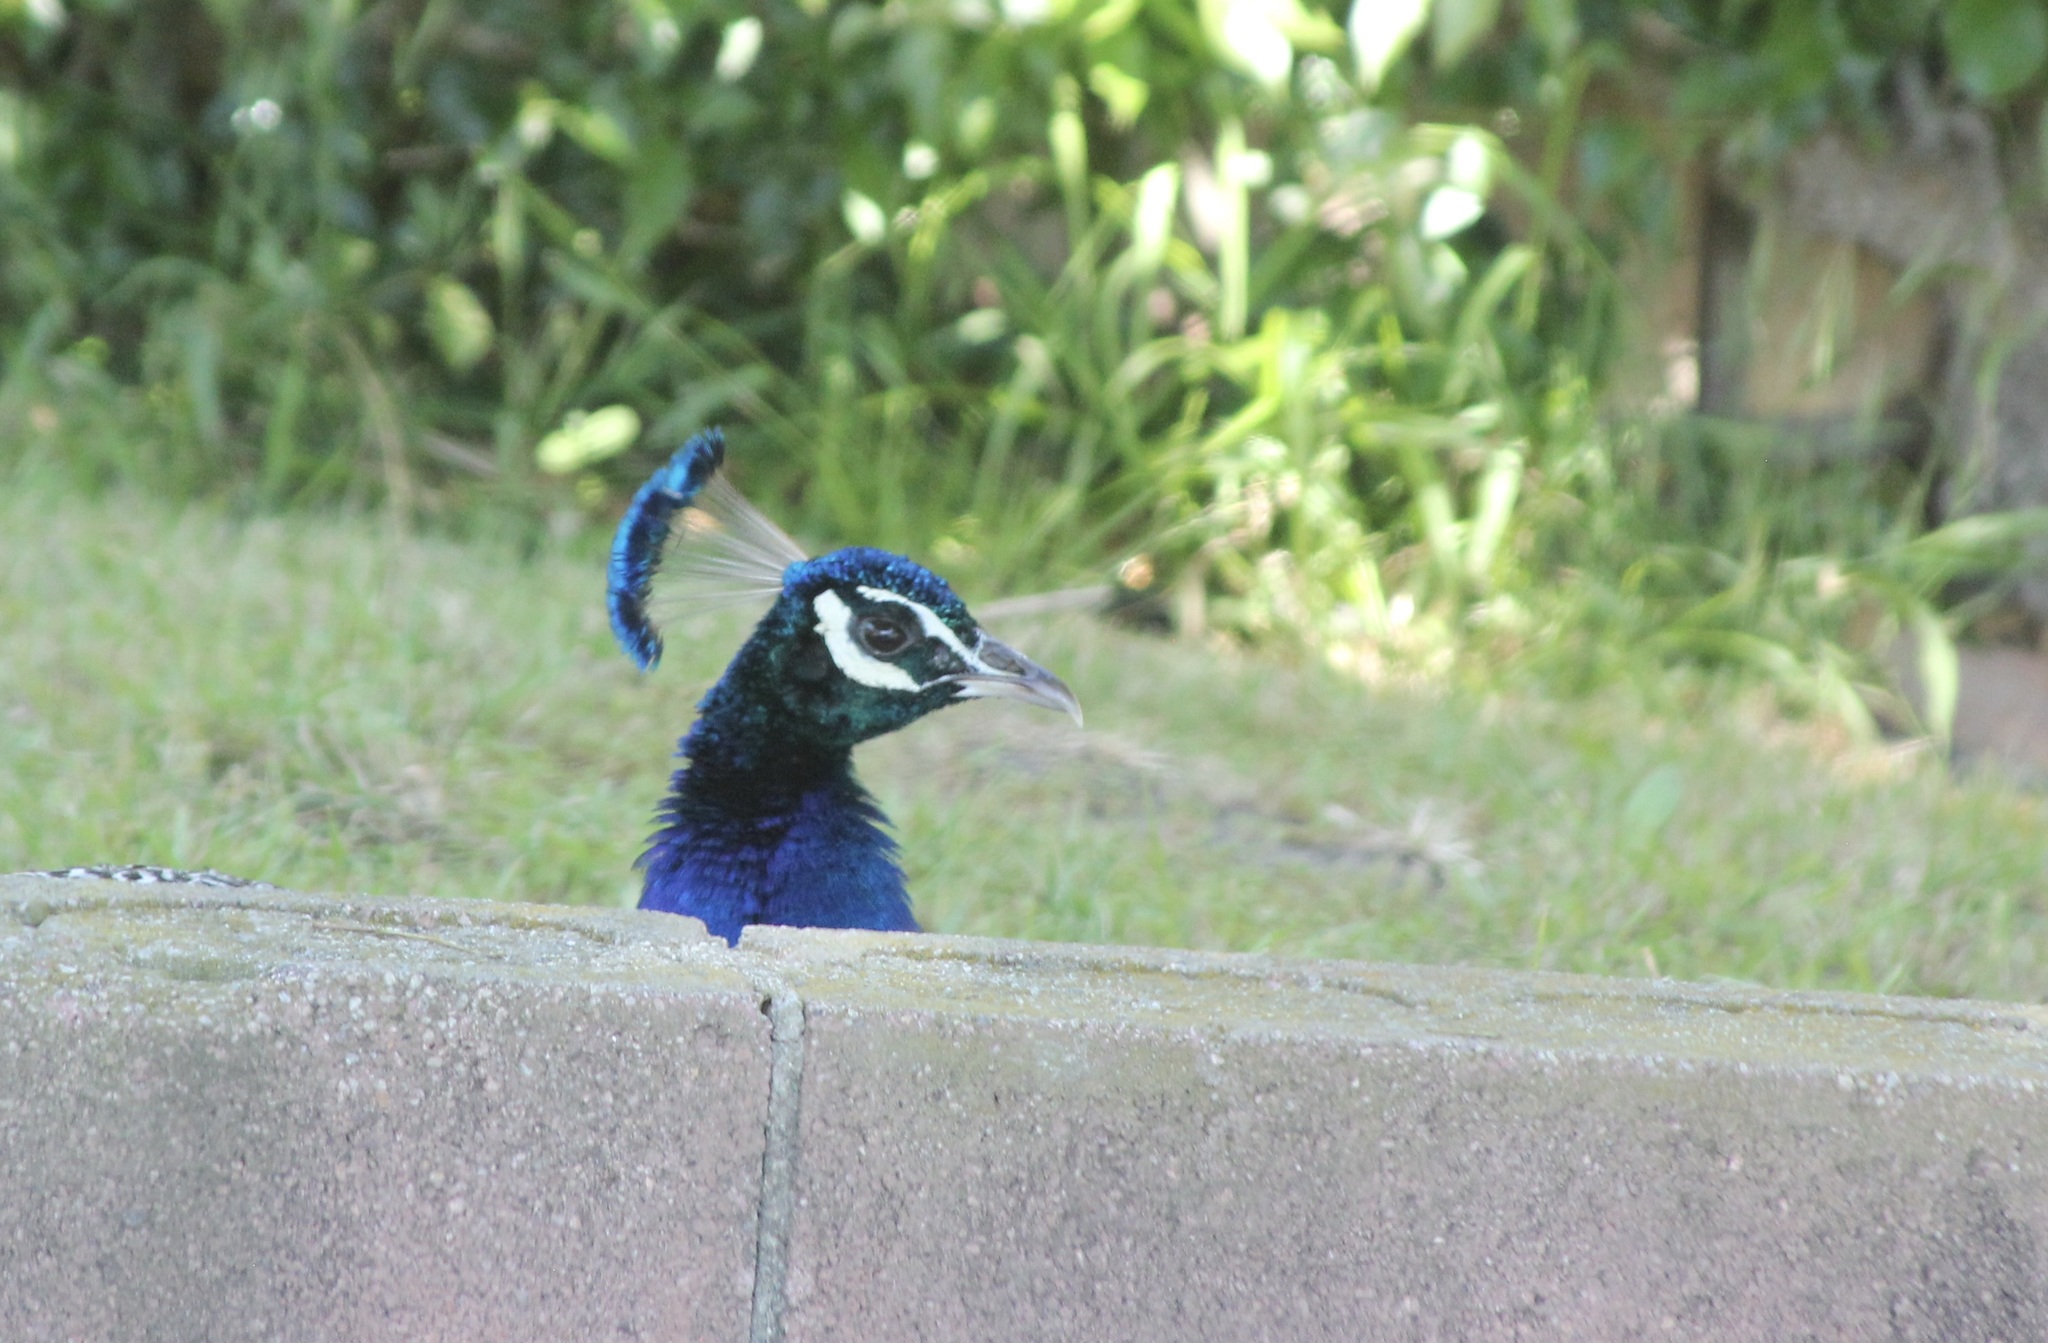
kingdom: Animalia
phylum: Chordata
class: Aves
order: Galliformes
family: Phasianidae
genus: Pavo
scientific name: Pavo cristatus
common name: Indian peafowl
